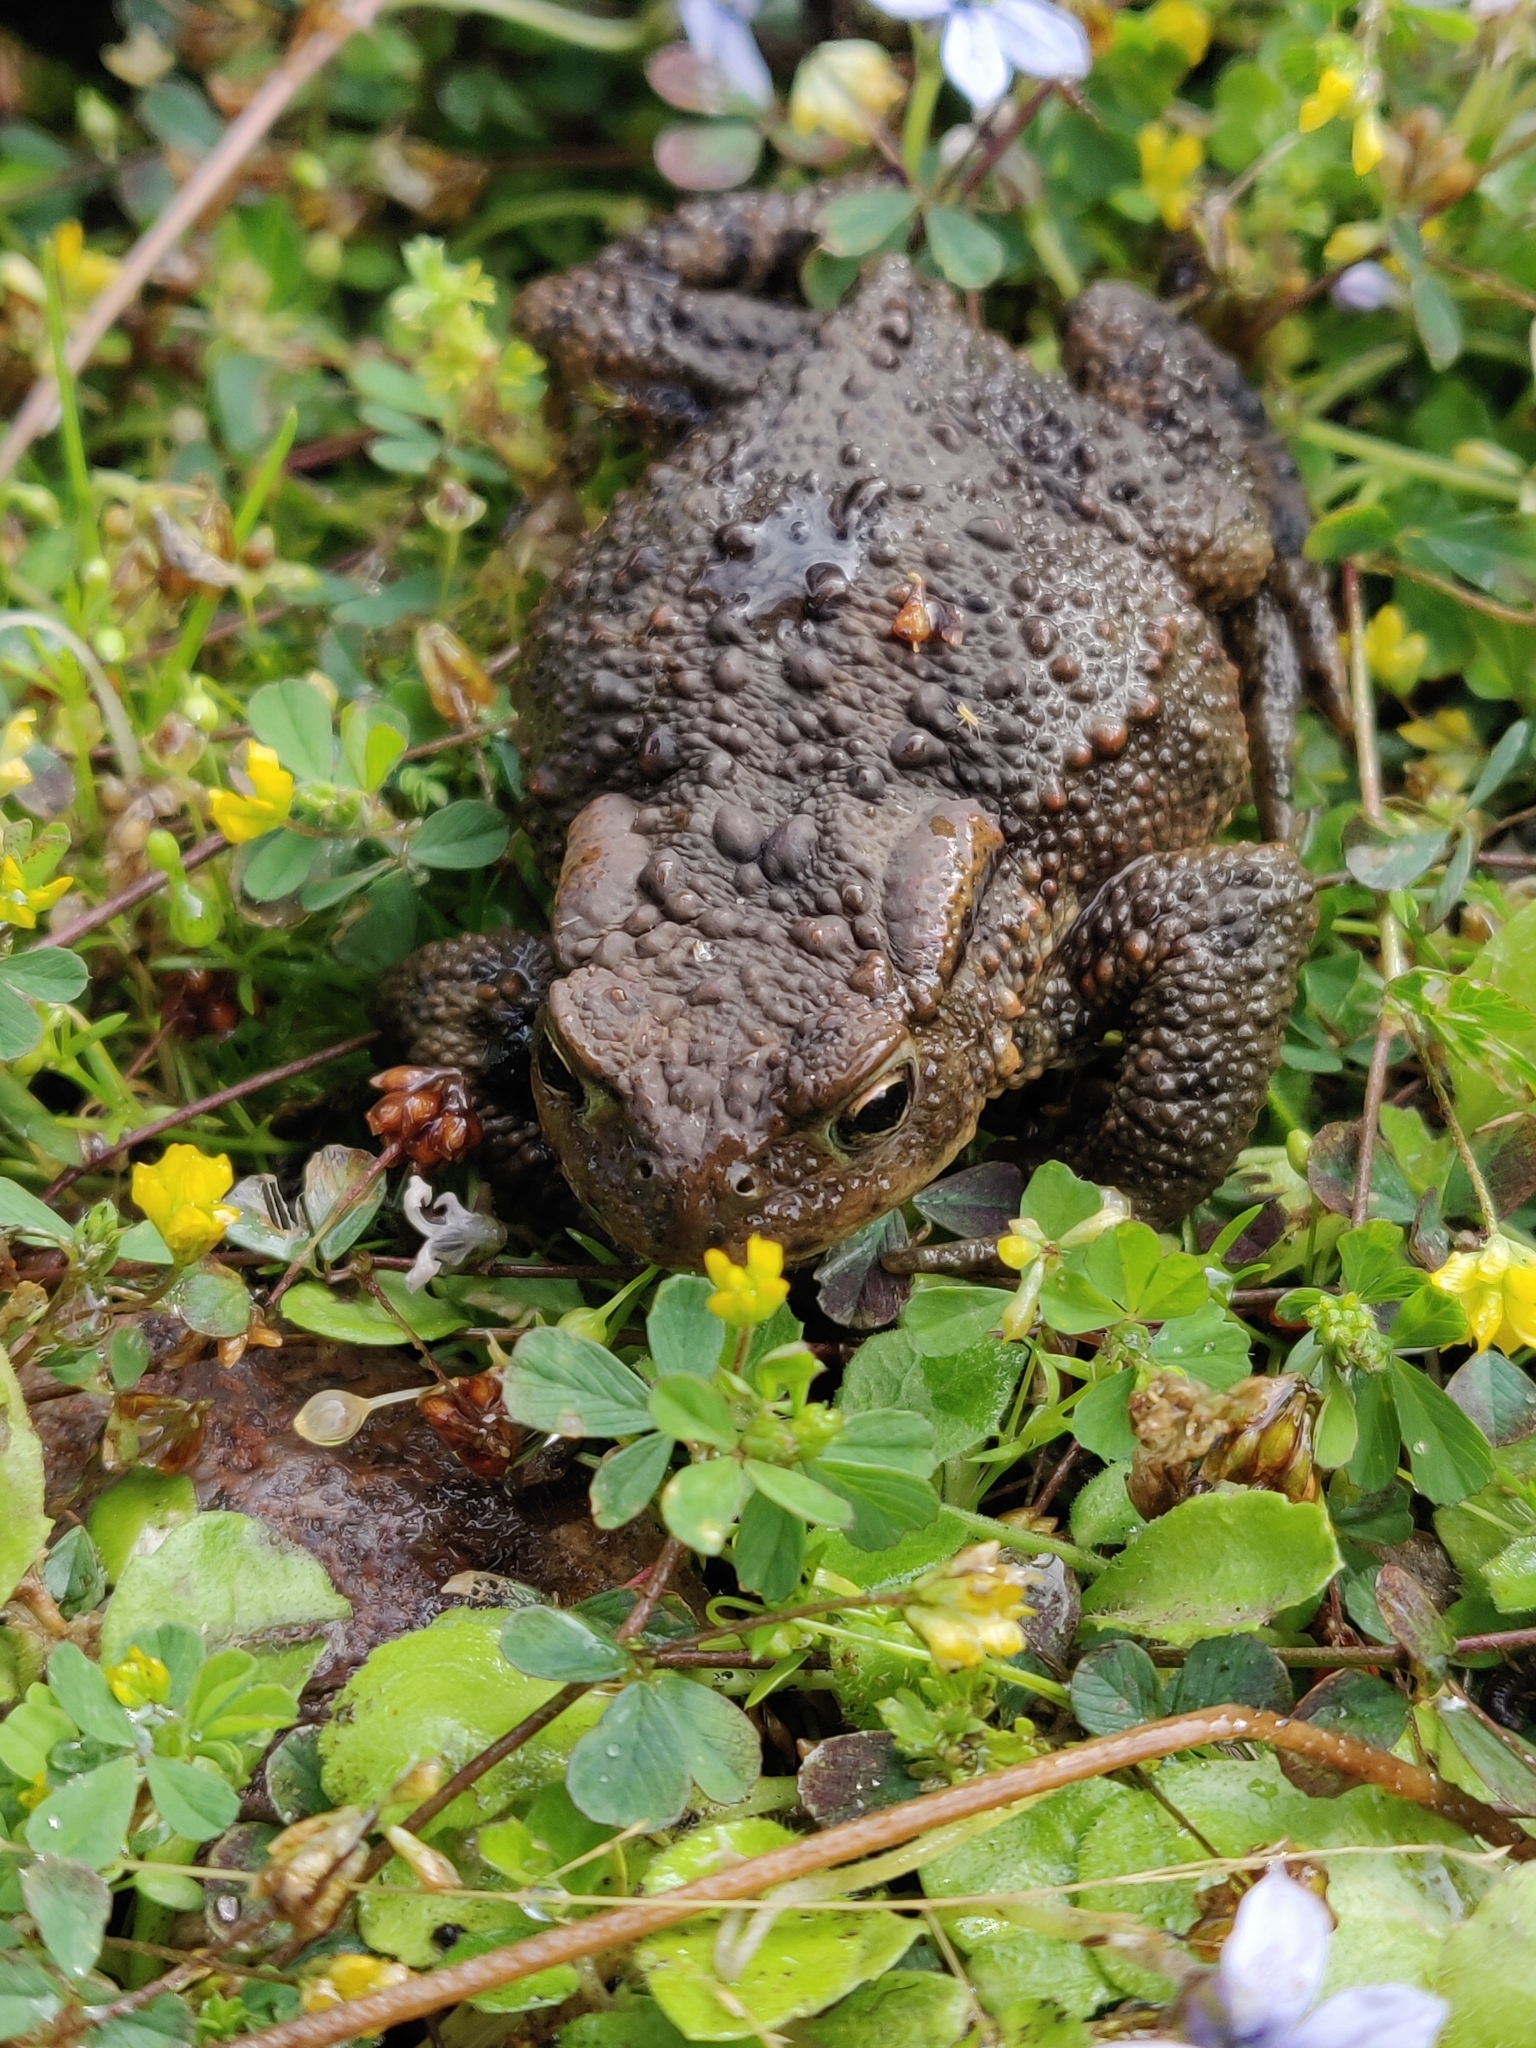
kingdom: Animalia
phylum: Chordata
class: Amphibia
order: Anura
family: Bufonidae
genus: Bufo
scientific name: Bufo bufo
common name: Common toad
